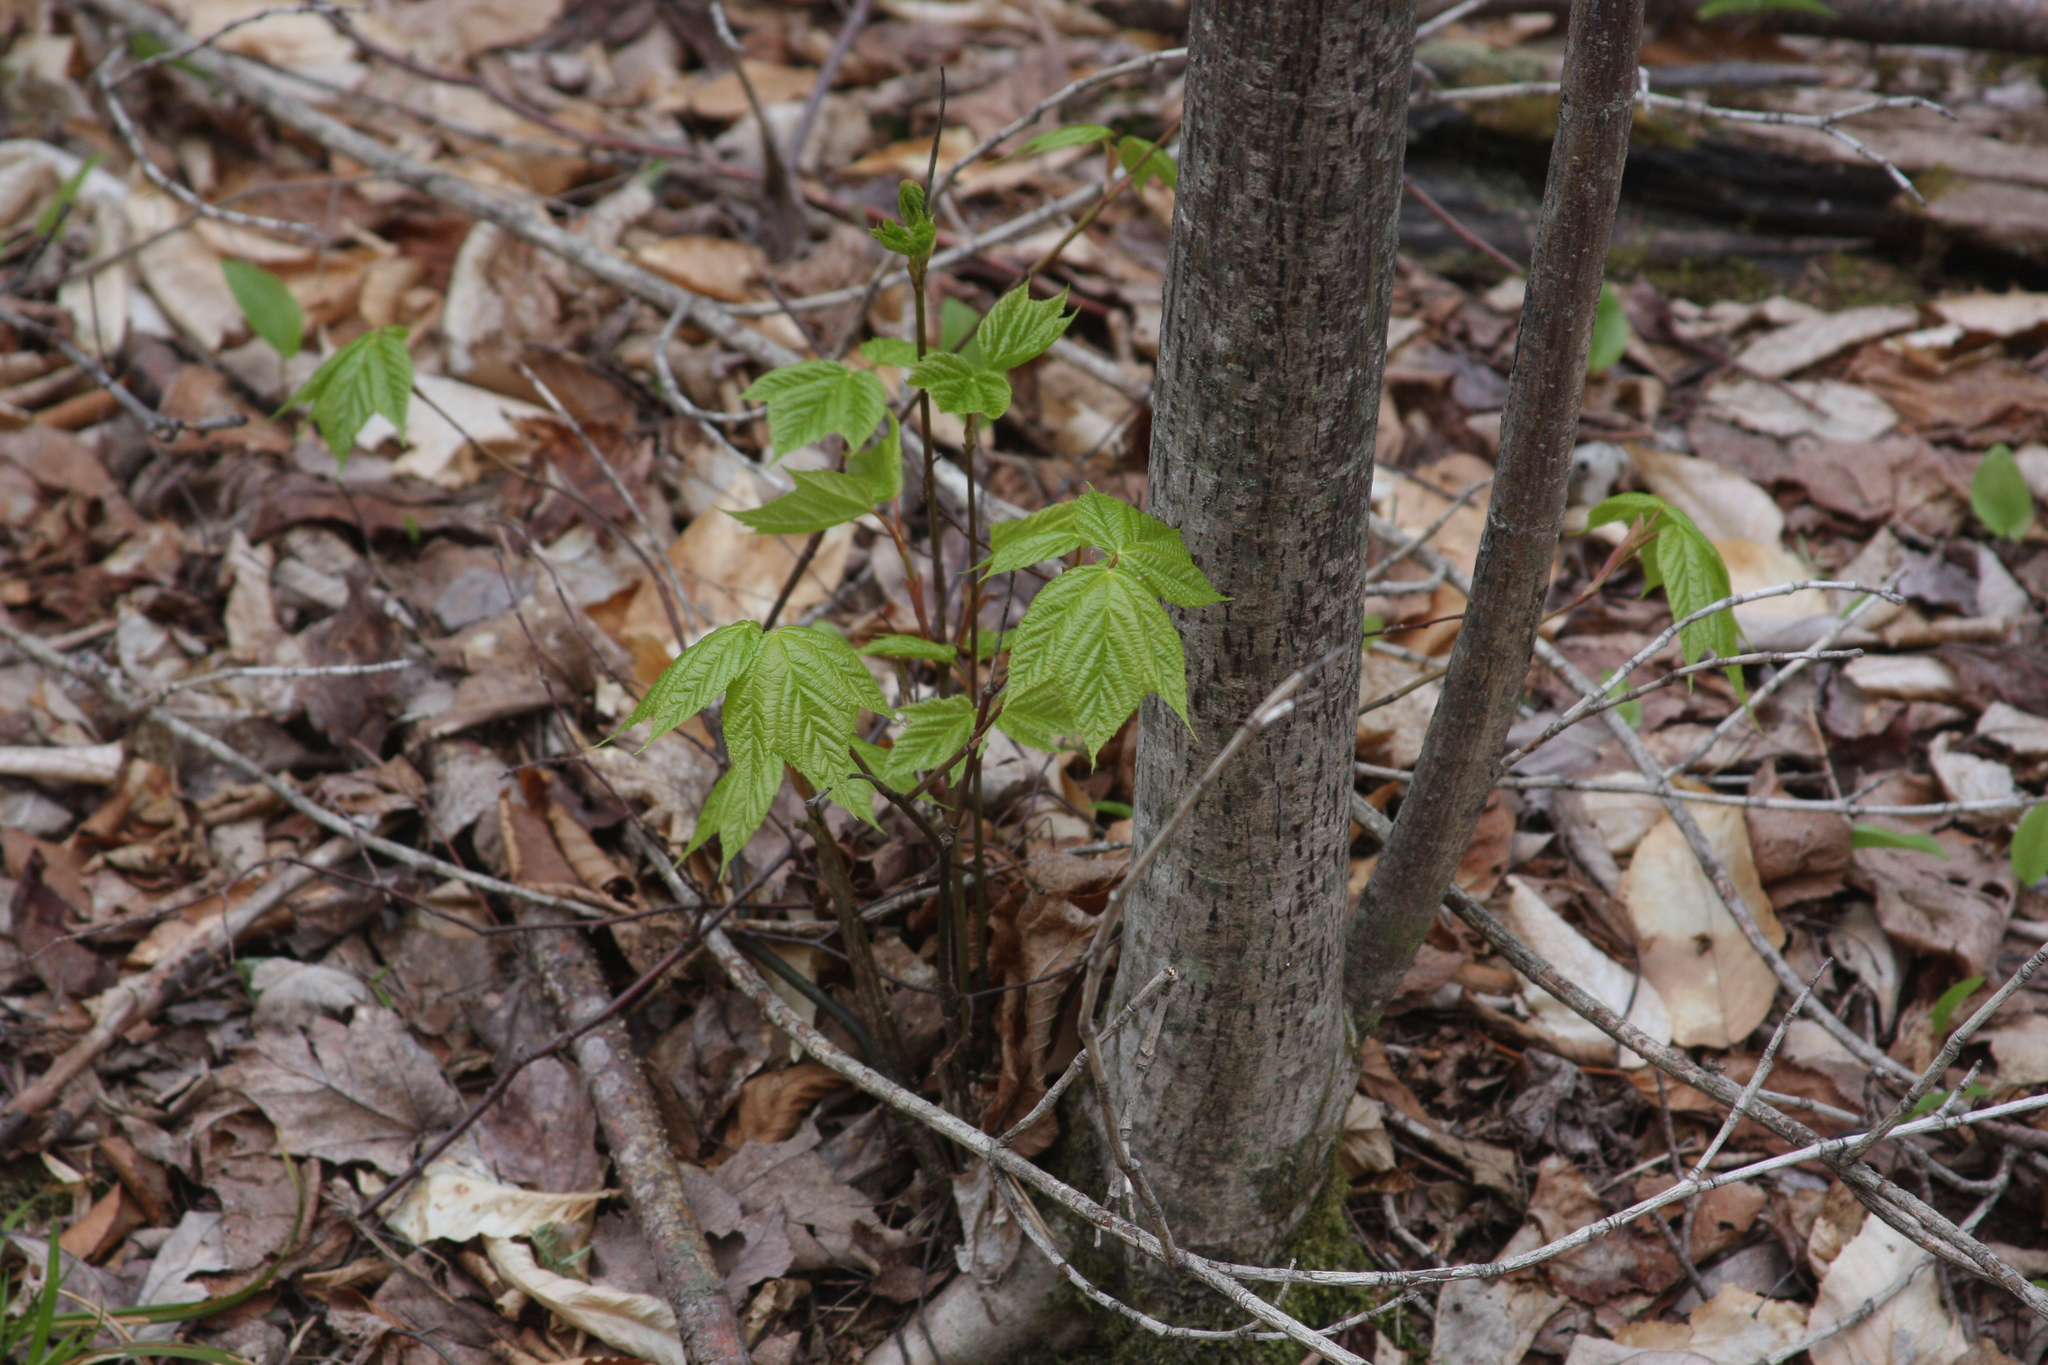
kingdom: Plantae
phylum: Tracheophyta
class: Magnoliopsida
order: Sapindales
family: Sapindaceae
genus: Acer
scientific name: Acer pensylvanicum
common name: Moosewood
